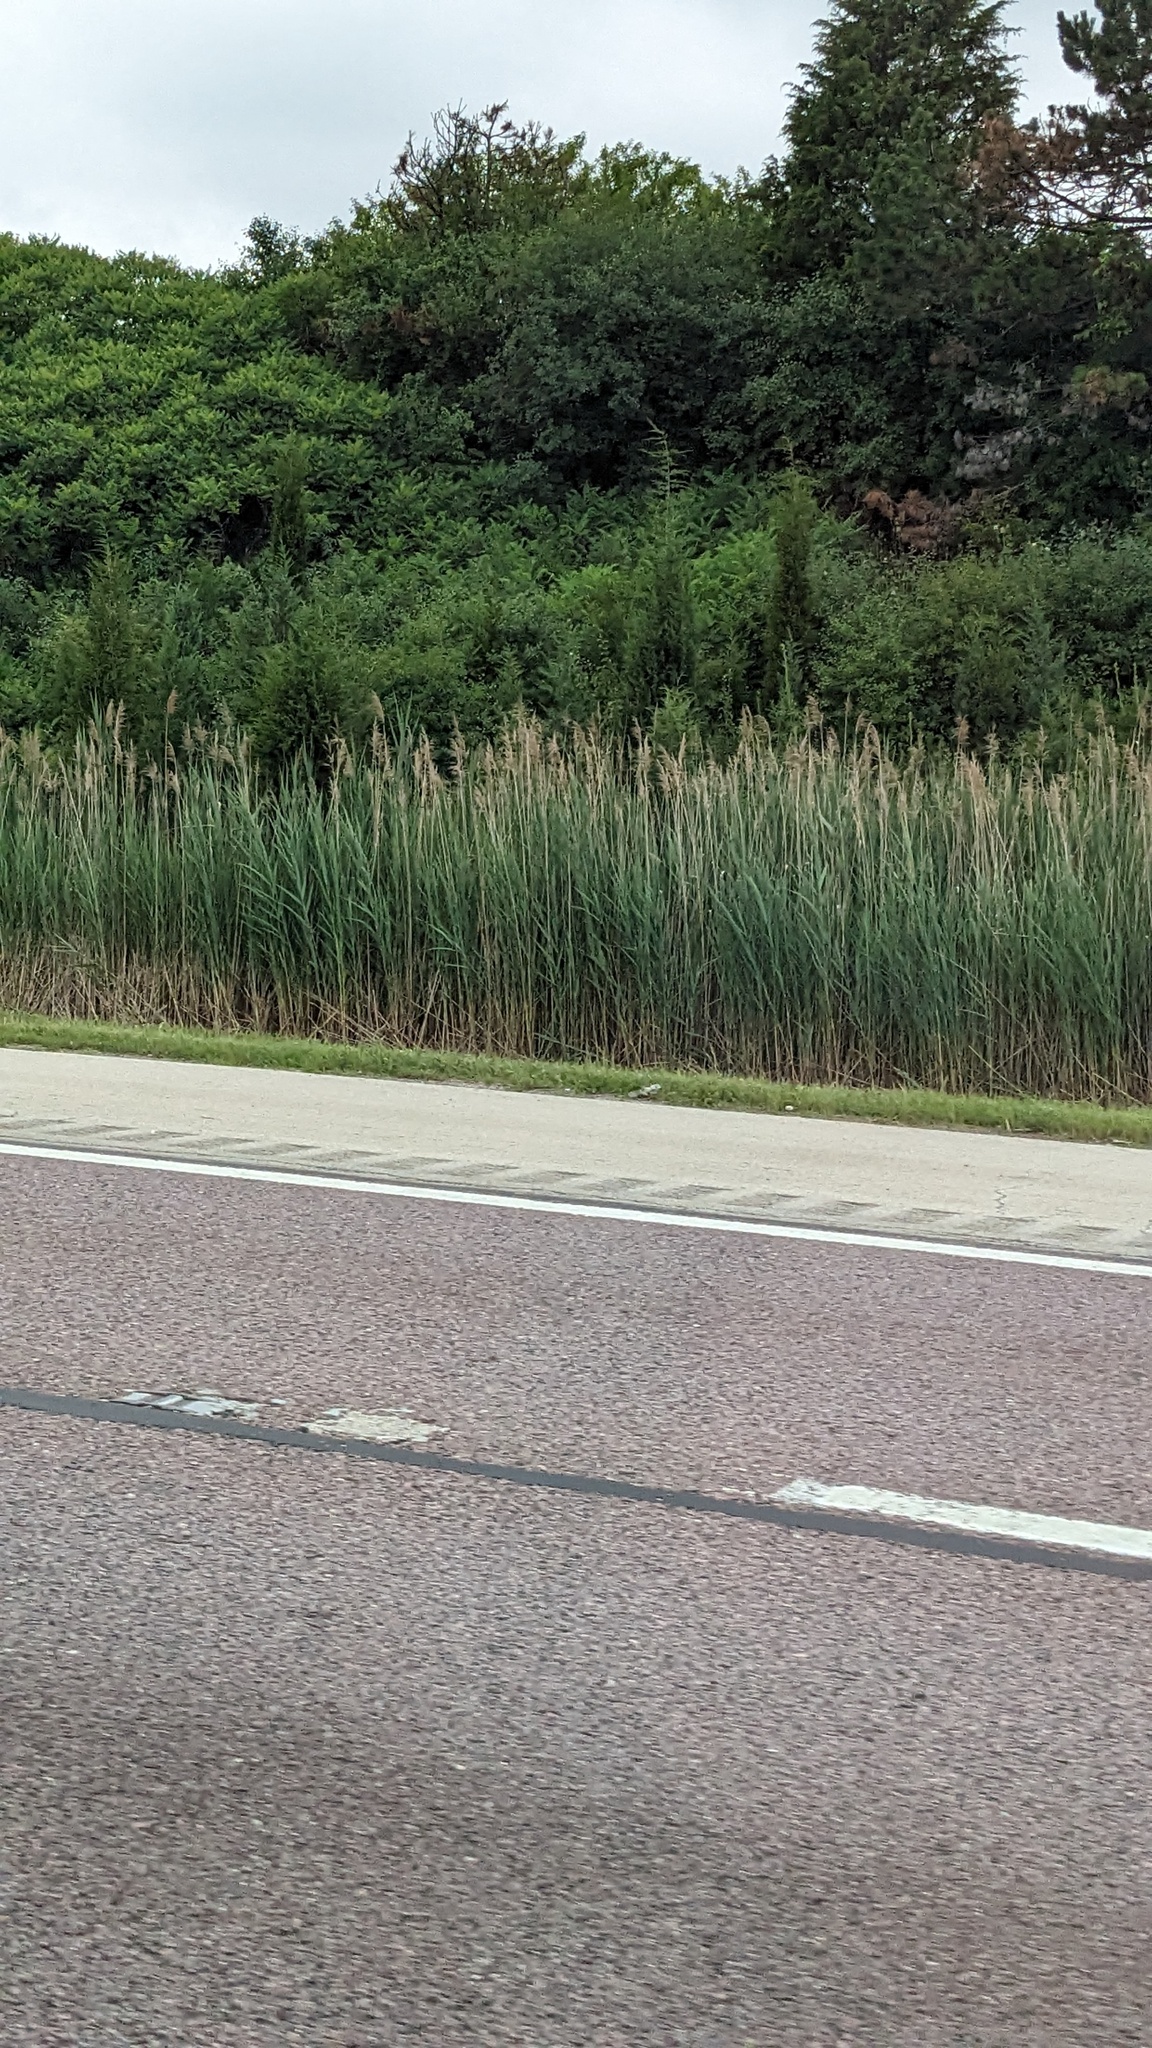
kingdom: Plantae
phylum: Tracheophyta
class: Liliopsida
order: Poales
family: Poaceae
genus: Phragmites
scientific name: Phragmites australis
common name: Common reed
